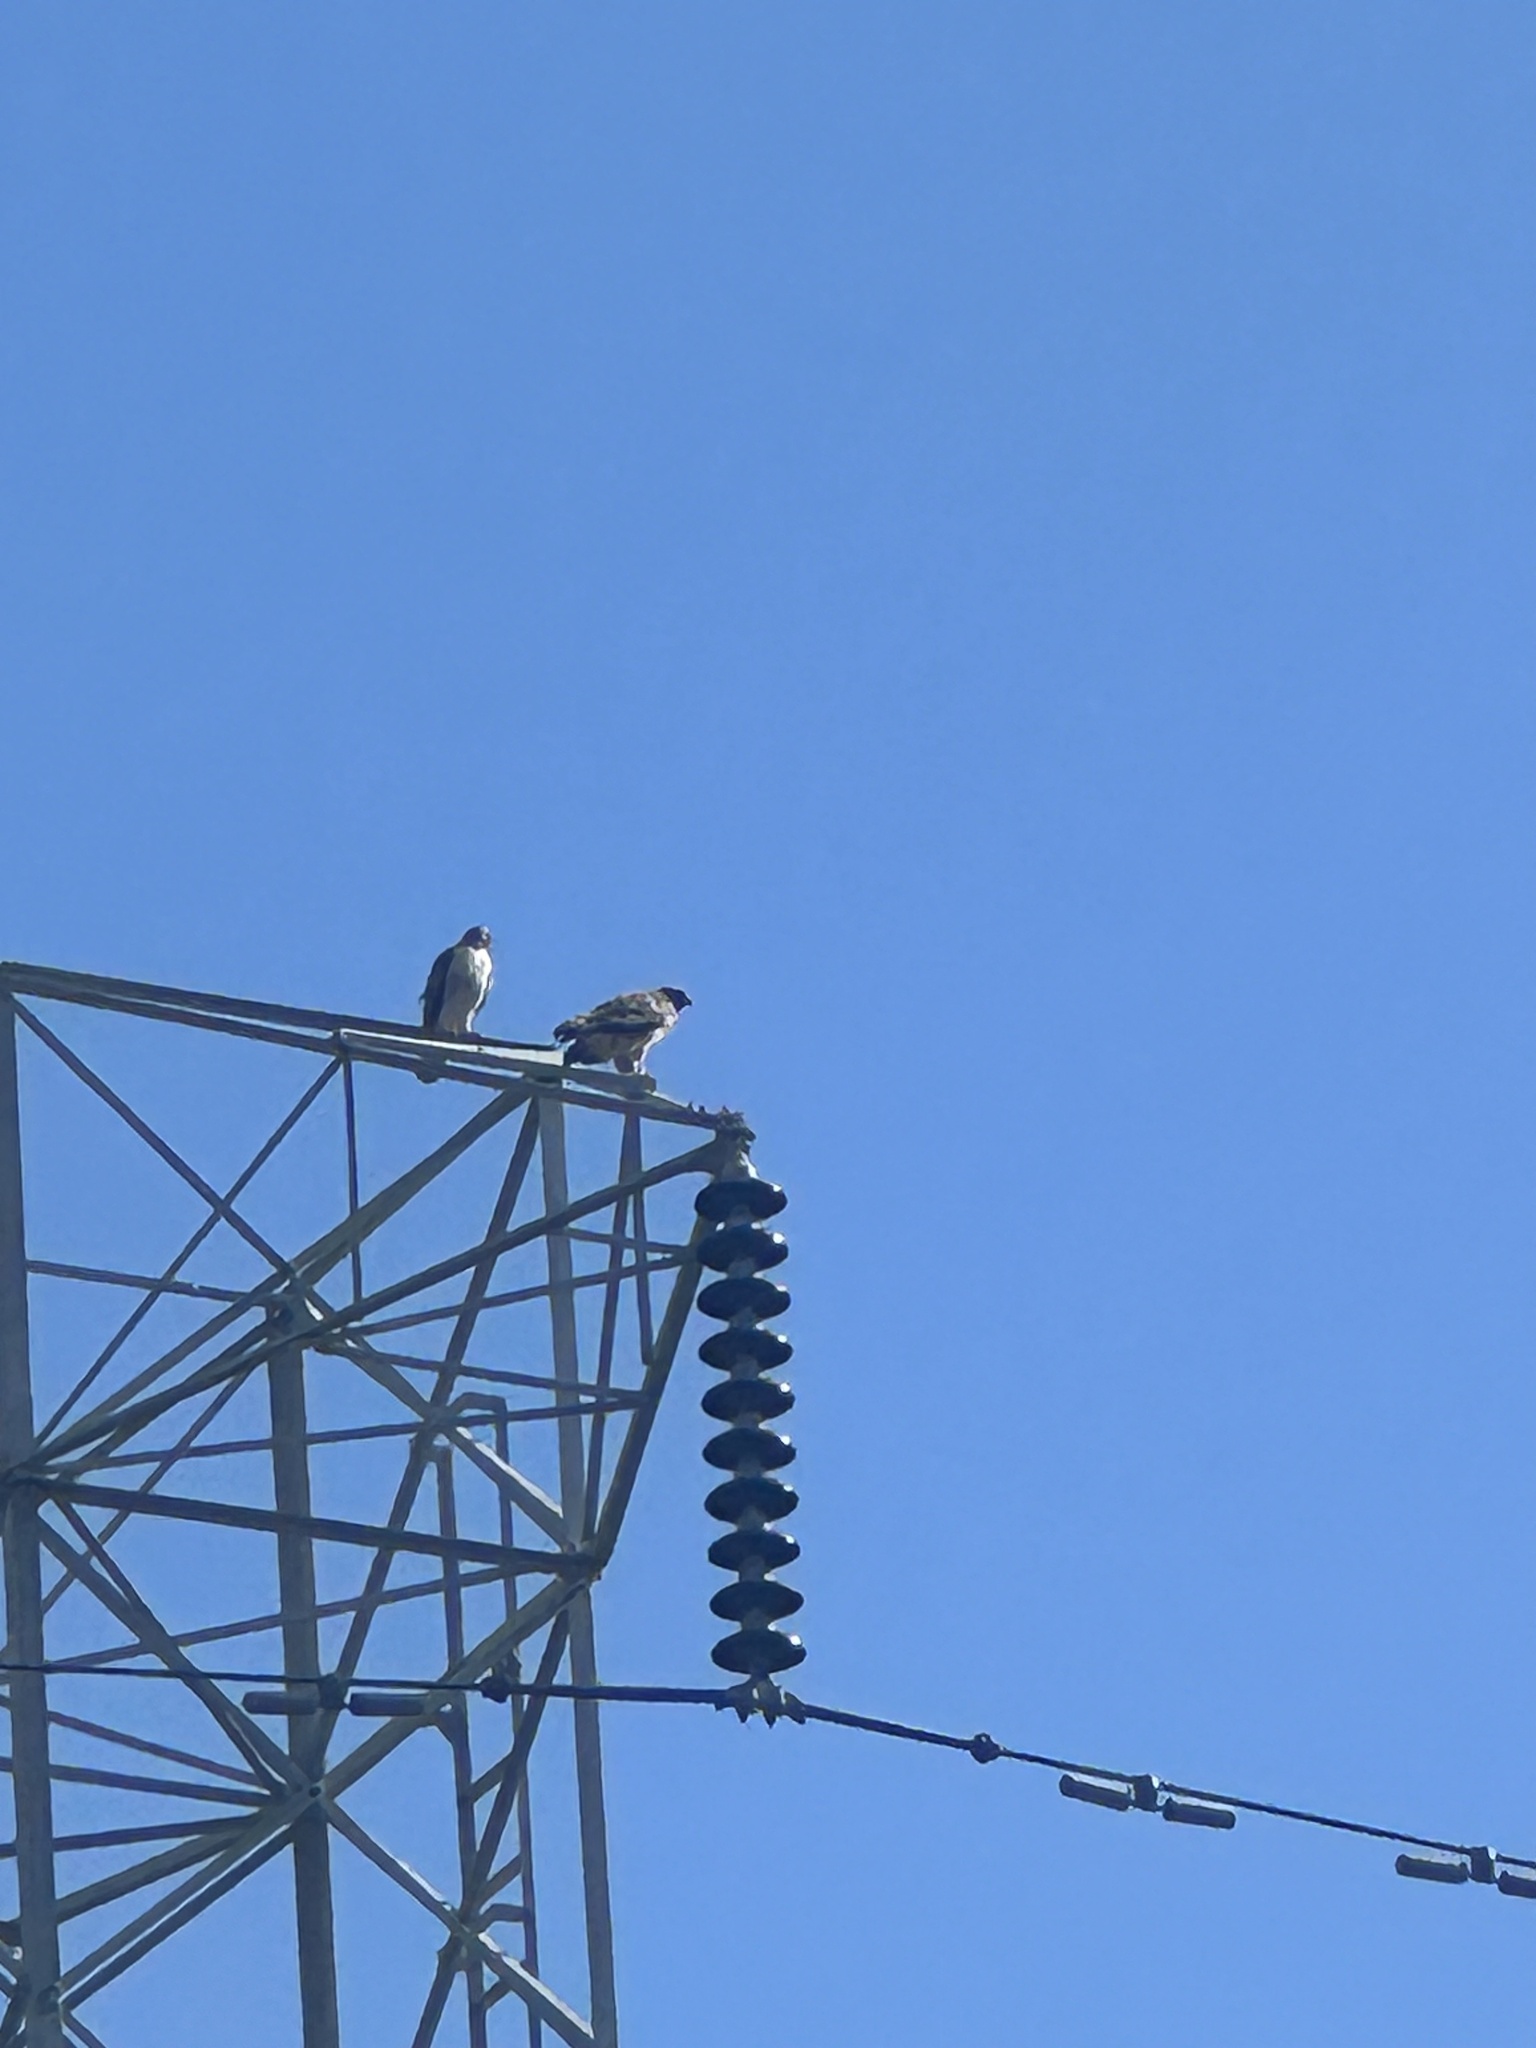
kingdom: Animalia
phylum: Chordata
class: Aves
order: Accipitriformes
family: Accipitridae
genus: Buteo
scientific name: Buteo jamaicensis
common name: Red-tailed hawk
